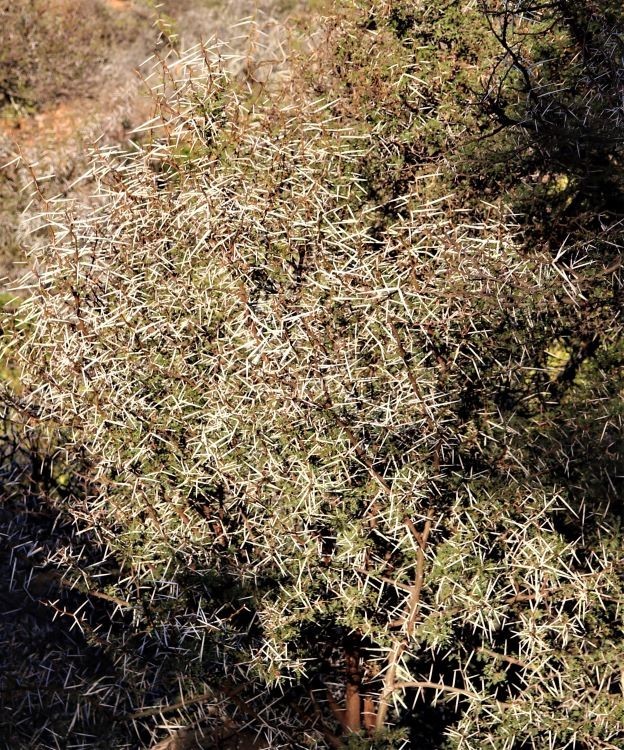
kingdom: Plantae
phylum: Tracheophyta
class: Magnoliopsida
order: Fabales
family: Fabaceae
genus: Vachellia
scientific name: Vachellia karroo
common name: Sweet thorn
